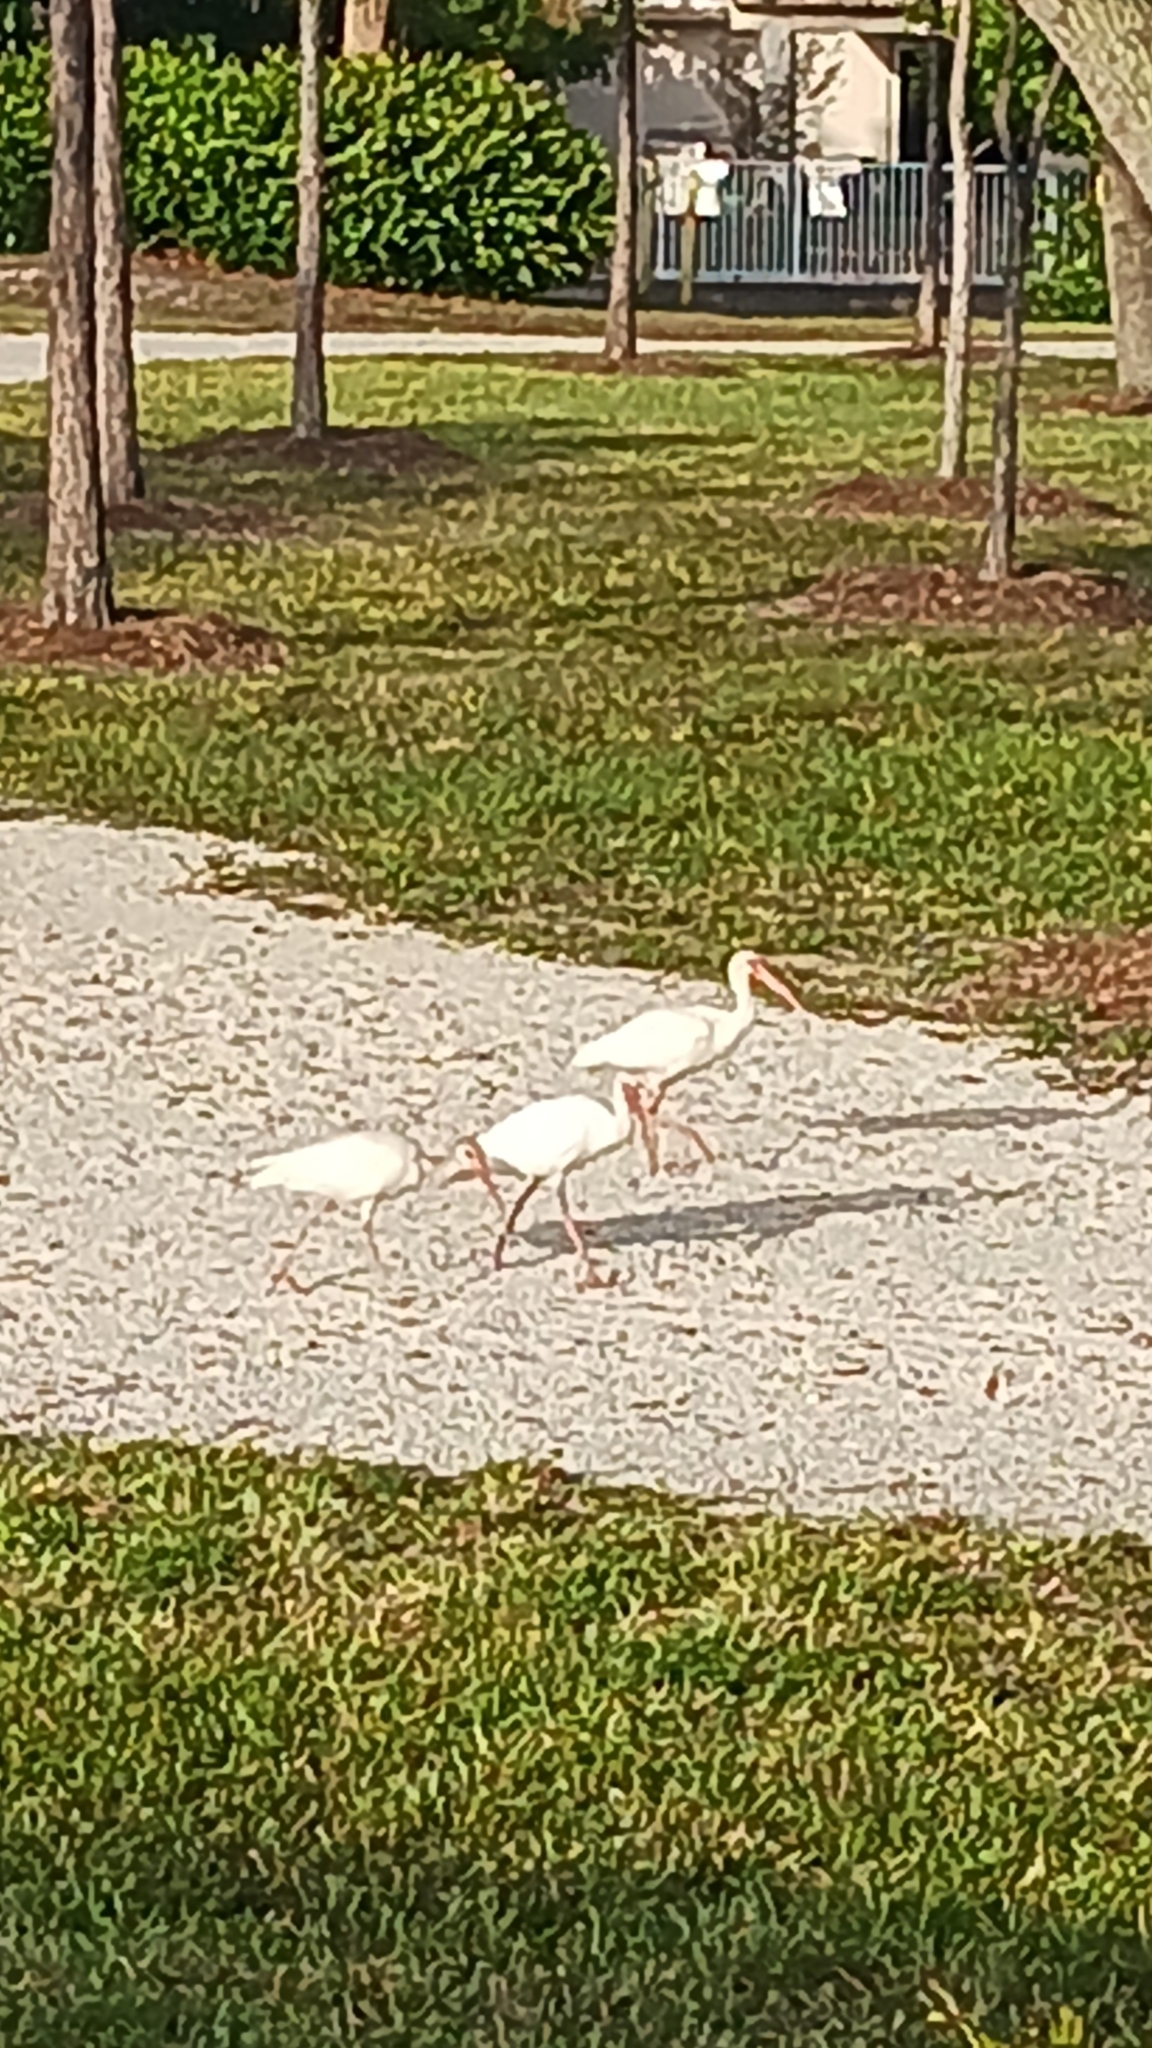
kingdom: Animalia
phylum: Chordata
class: Aves
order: Pelecaniformes
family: Threskiornithidae
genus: Eudocimus
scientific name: Eudocimus albus
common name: White ibis
